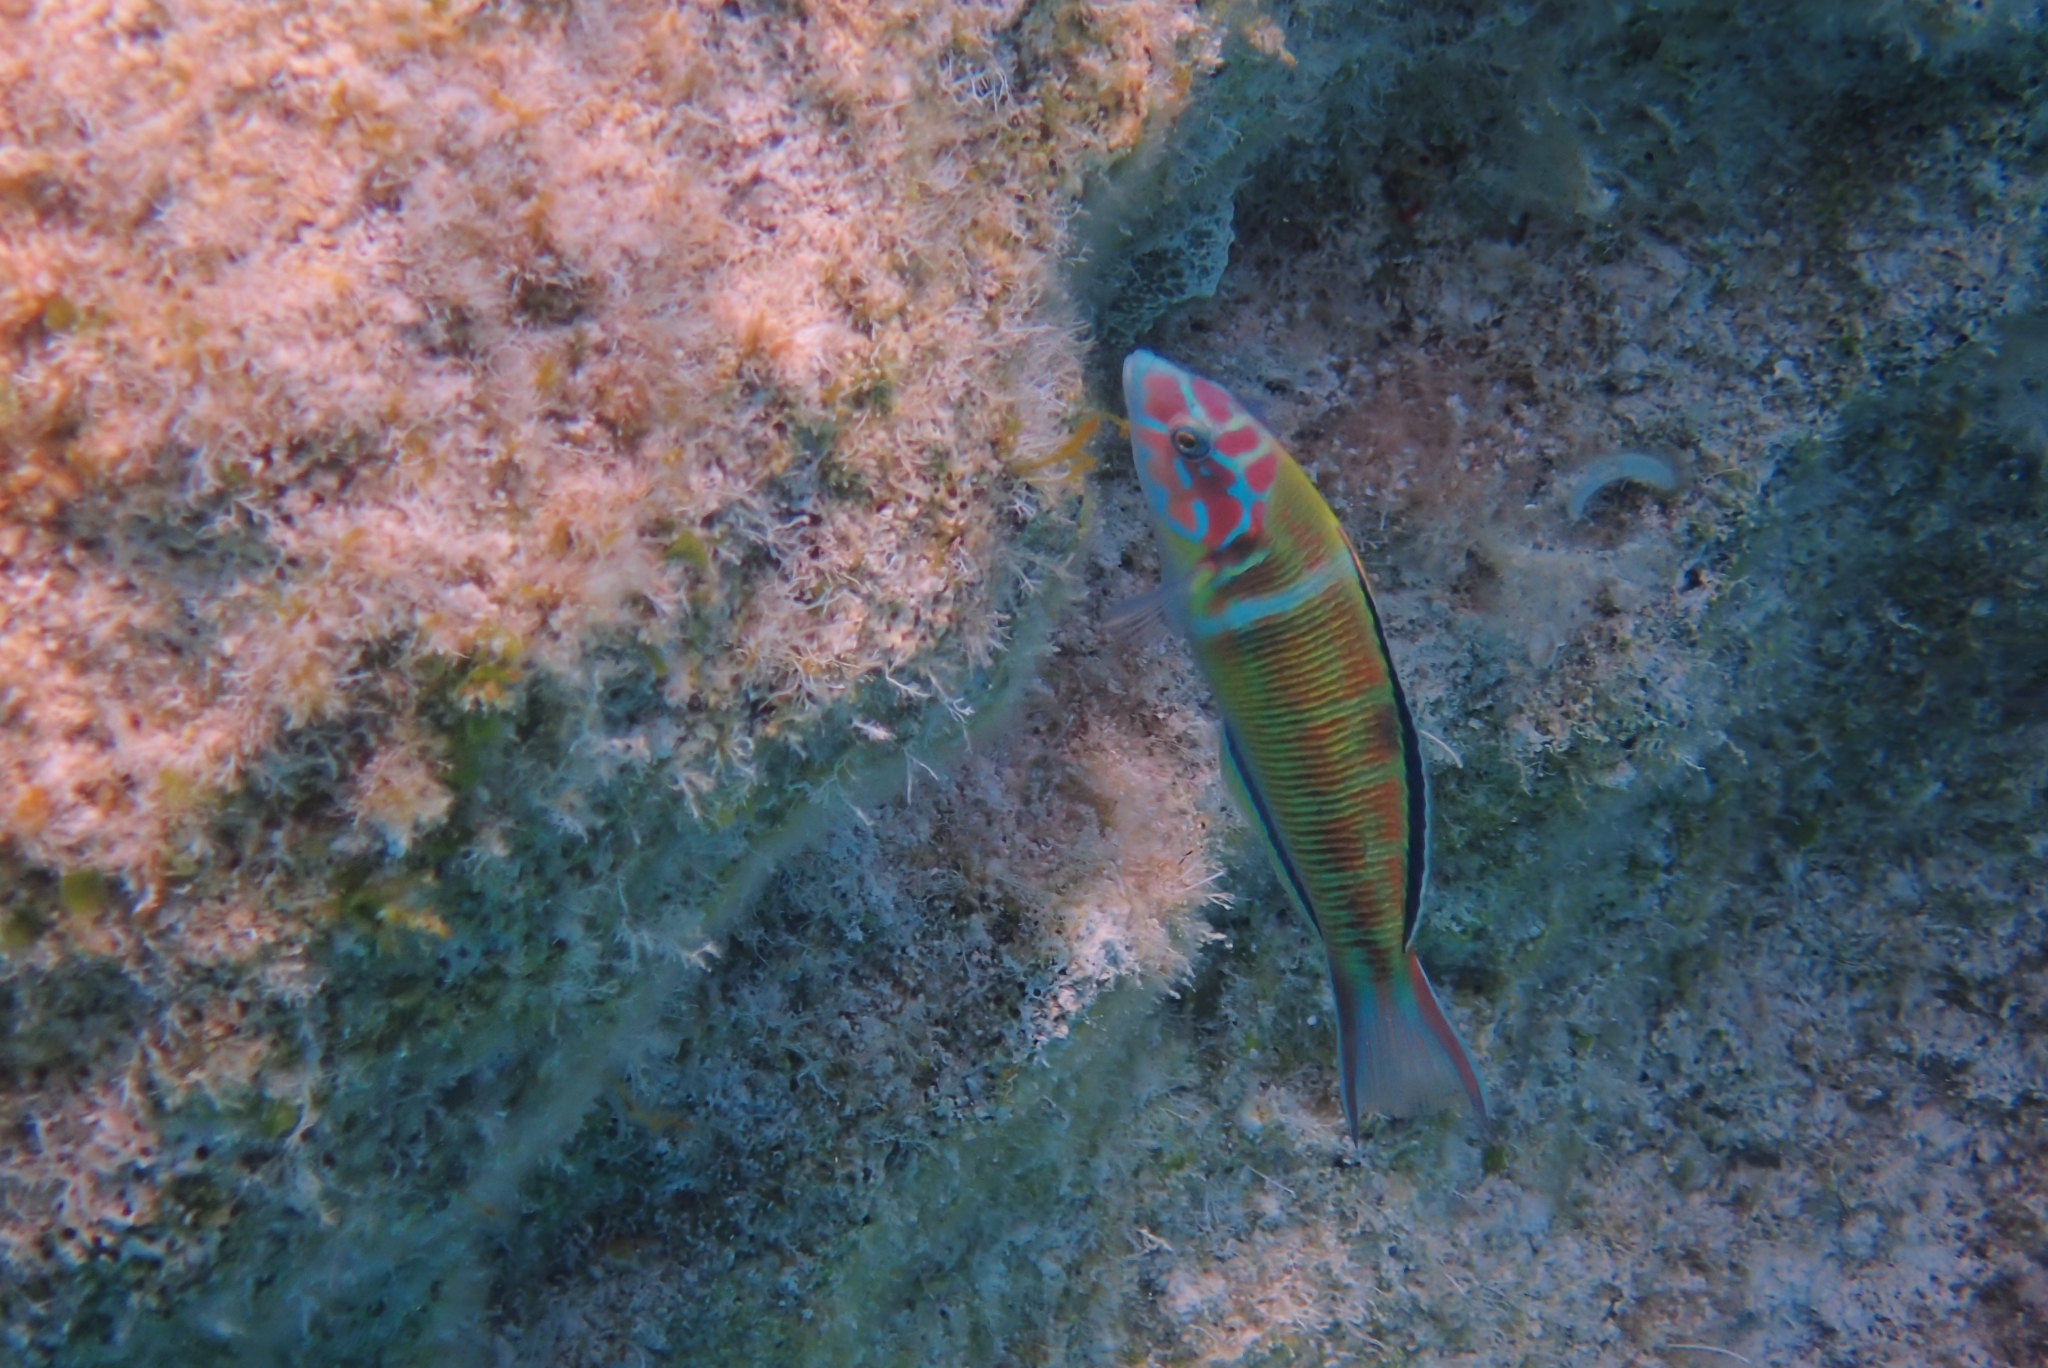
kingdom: Animalia
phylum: Chordata
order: Perciformes
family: Labridae
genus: Thalassoma
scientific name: Thalassoma pavo
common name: Ornate wrasse
